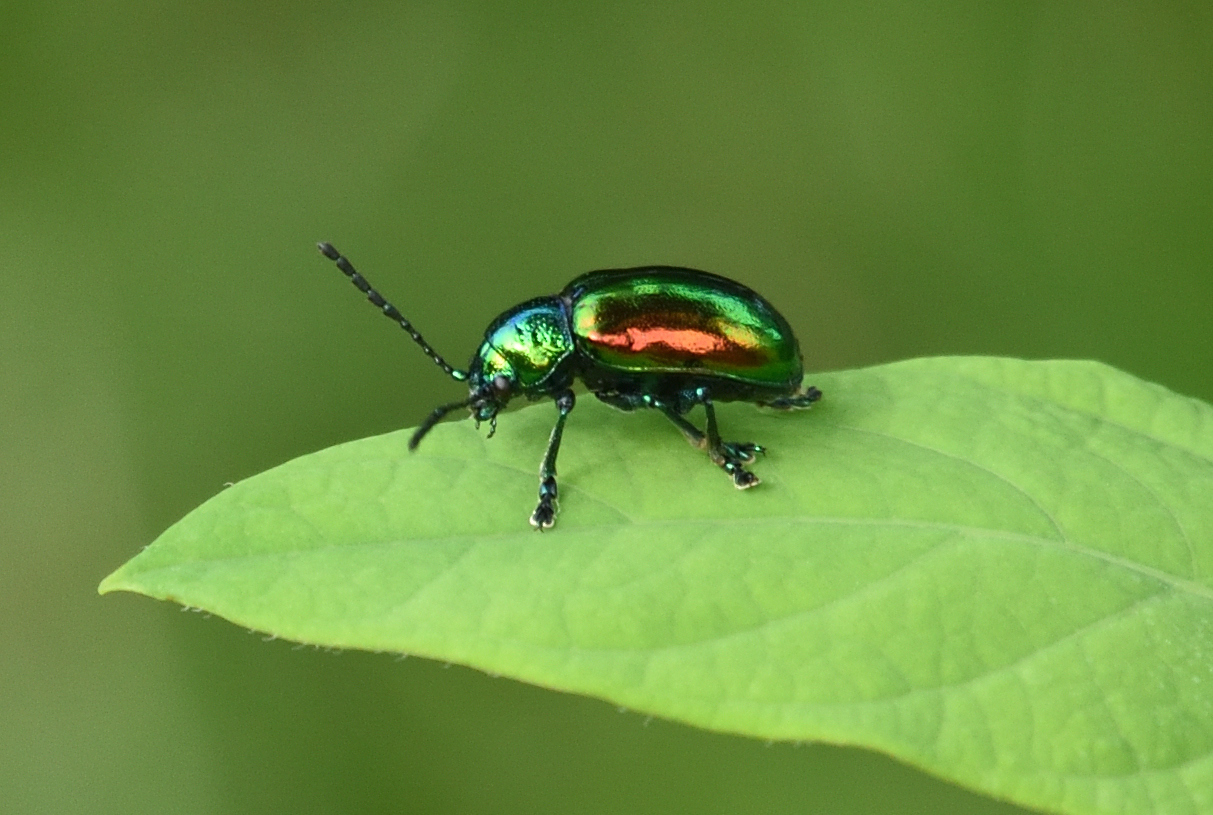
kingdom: Animalia
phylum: Arthropoda
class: Insecta
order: Coleoptera
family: Chrysomelidae
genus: Chrysochus
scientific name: Chrysochus auratus
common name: Dogbane leaf beetle
